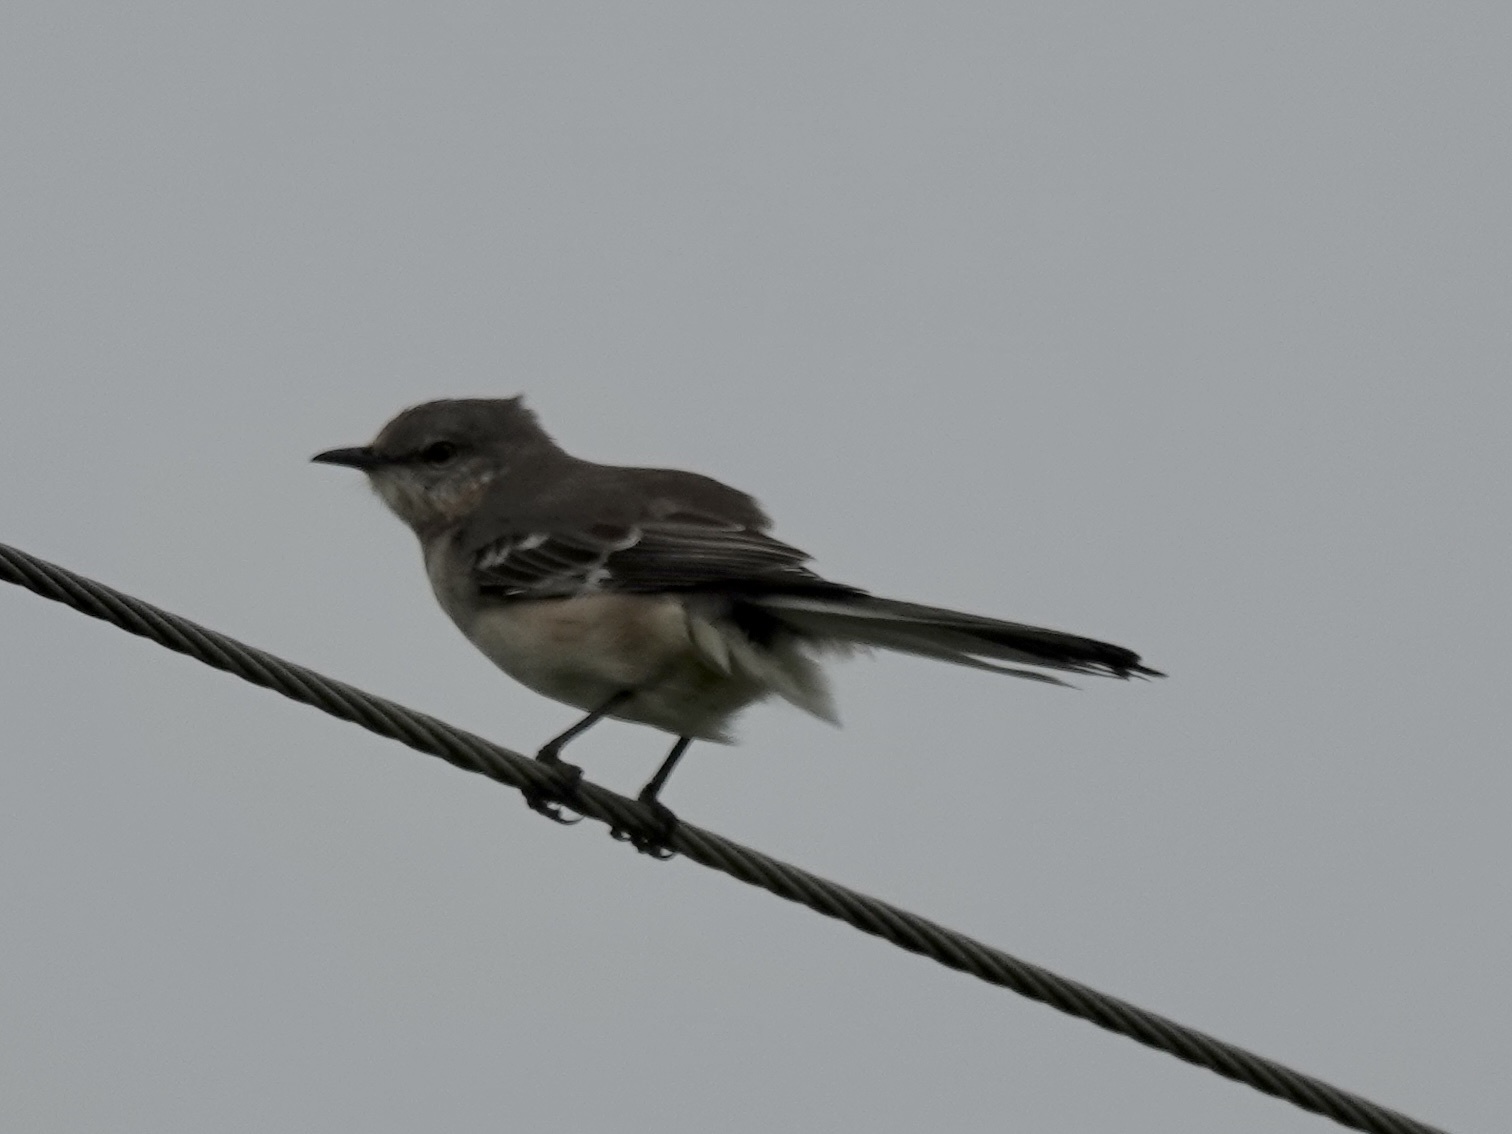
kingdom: Animalia
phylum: Chordata
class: Aves
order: Passeriformes
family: Mimidae
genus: Mimus
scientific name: Mimus polyglottos
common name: Northern mockingbird
